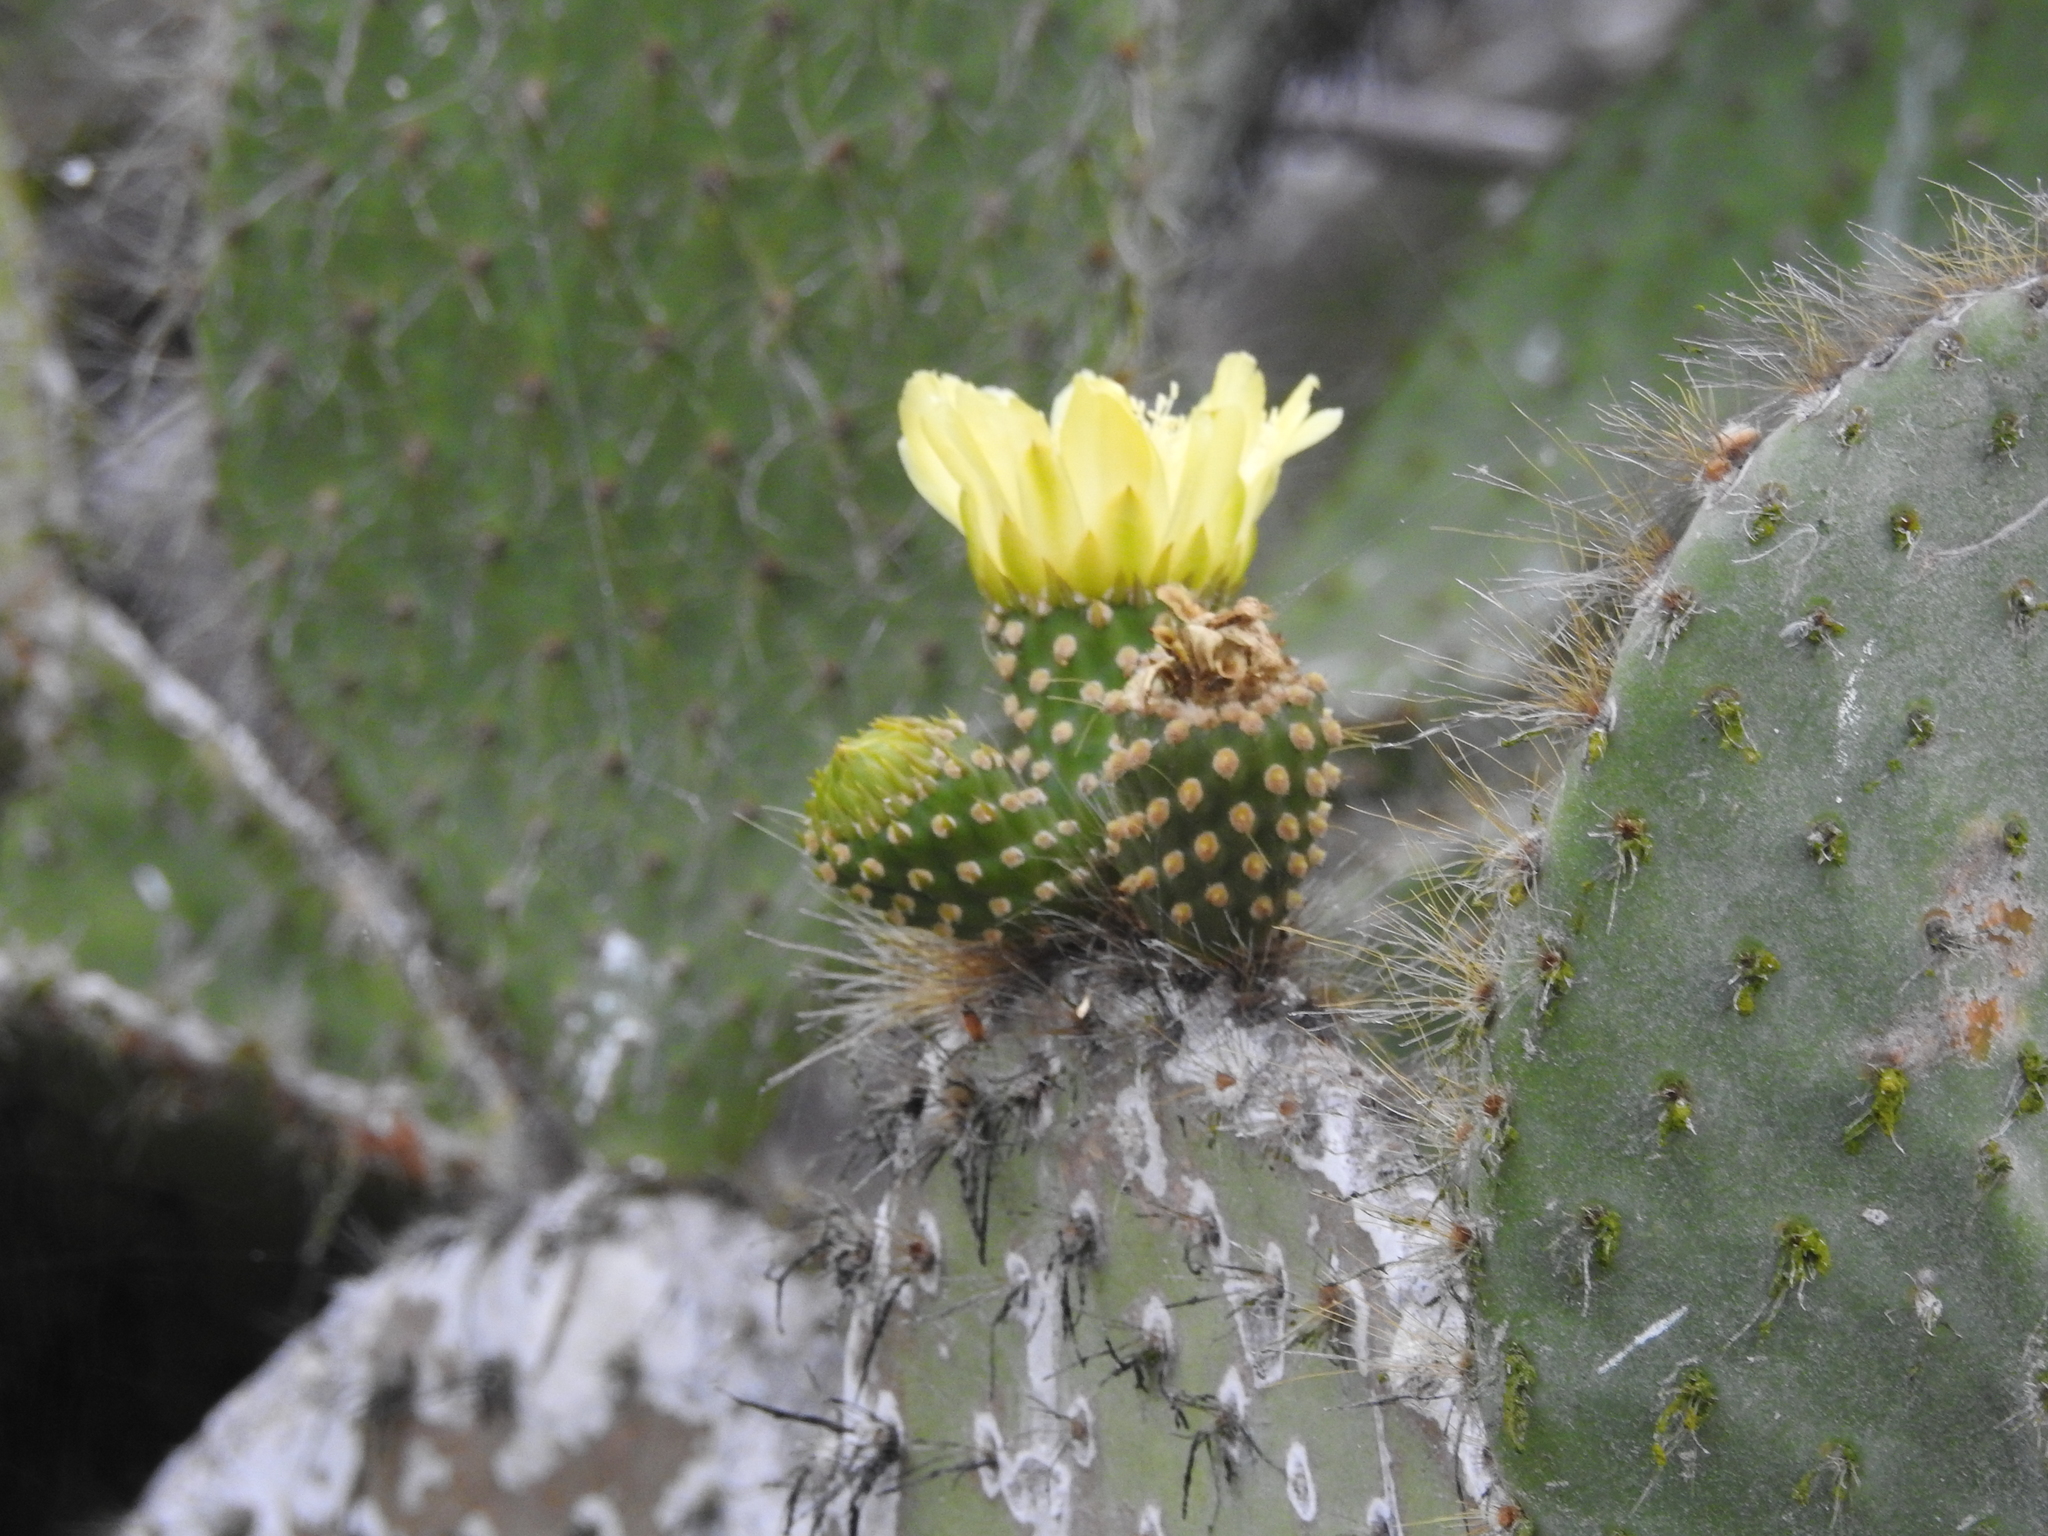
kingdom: Plantae
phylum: Tracheophyta
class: Magnoliopsida
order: Caryophyllales
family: Cactaceae
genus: Opuntia
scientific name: Opuntia galapageia
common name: Galápagos prickly pear
